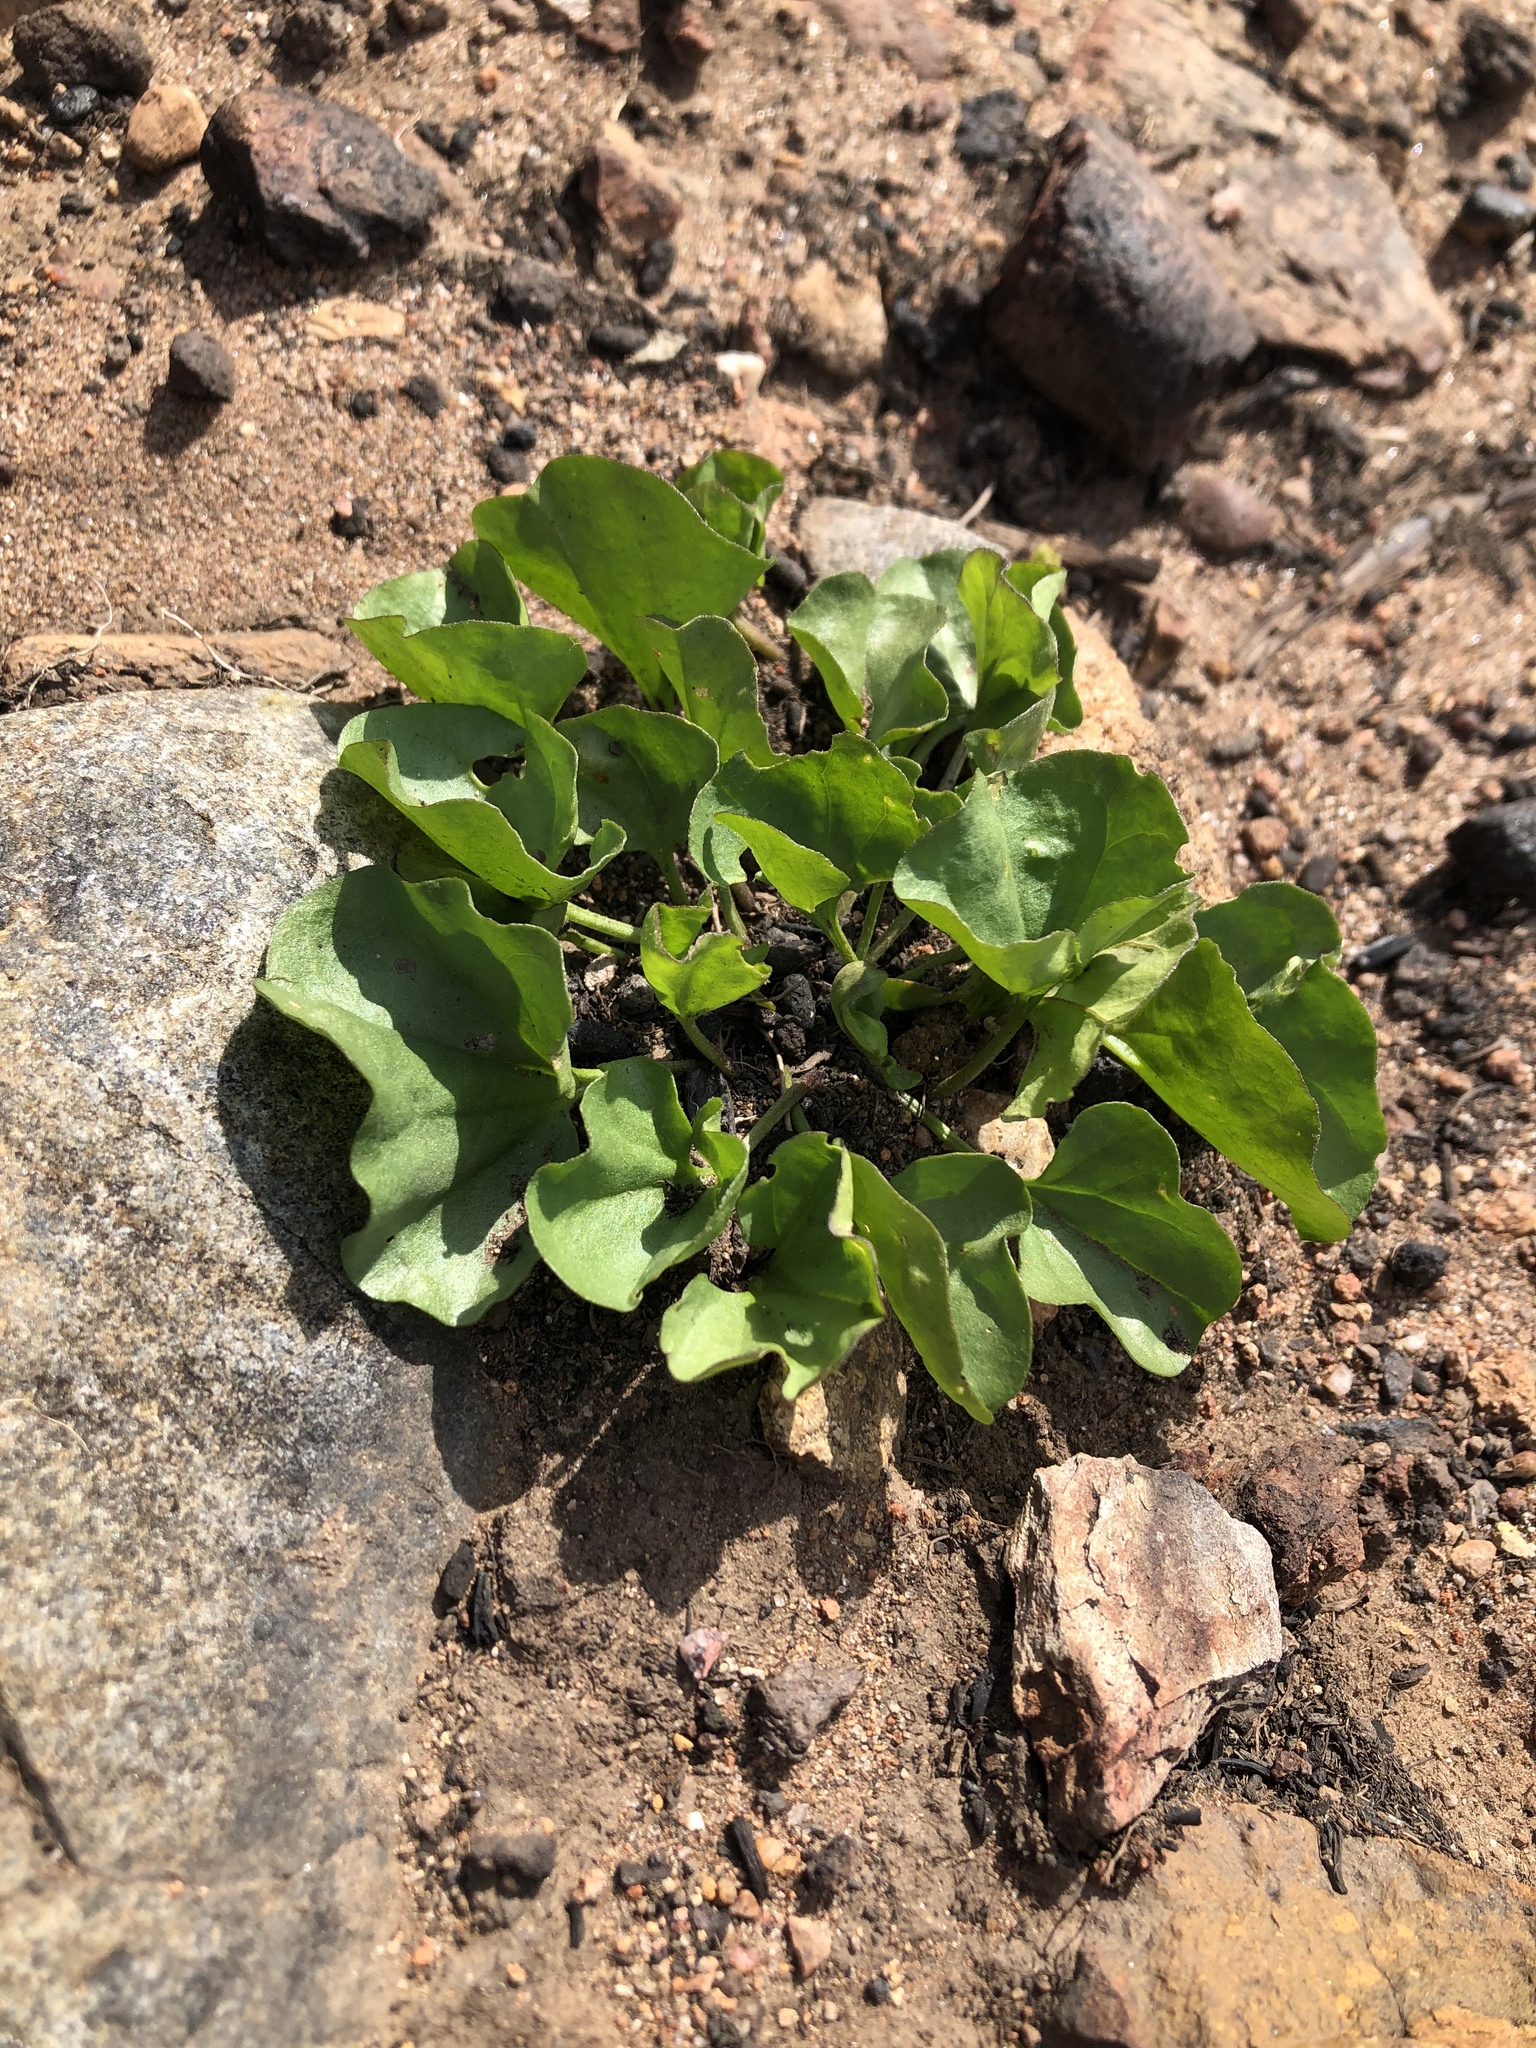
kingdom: Plantae
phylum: Tracheophyta
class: Magnoliopsida
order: Solanales
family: Convolvulaceae
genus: Dichondra
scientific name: Dichondra occidentalis
